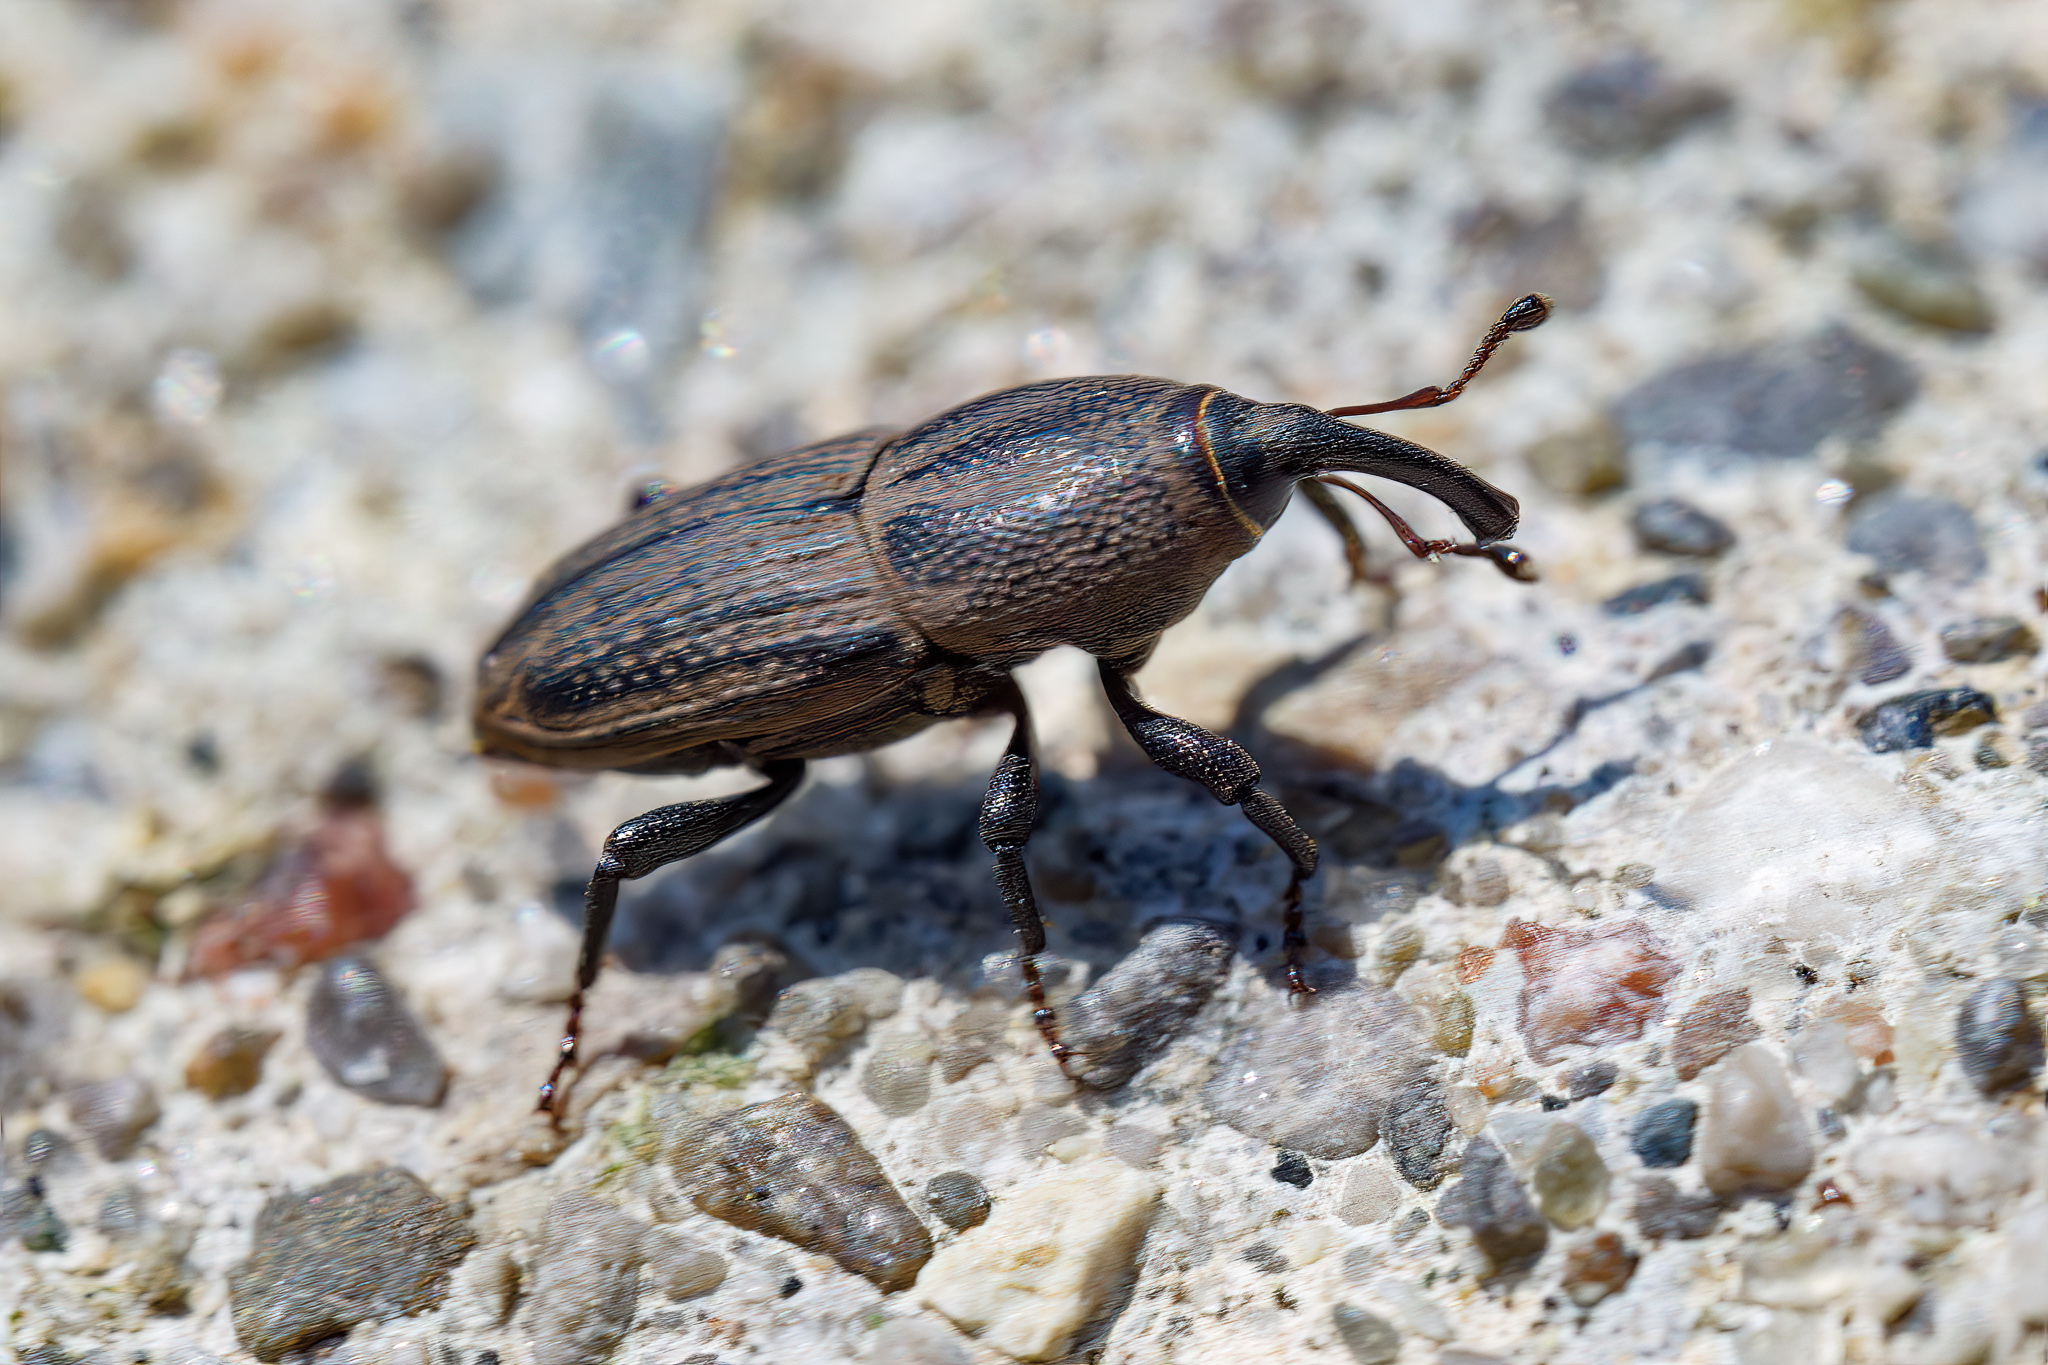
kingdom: Animalia
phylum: Arthropoda
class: Insecta
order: Coleoptera
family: Dryophthoridae
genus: Sphenophorus
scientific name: Sphenophorus interstitialis
